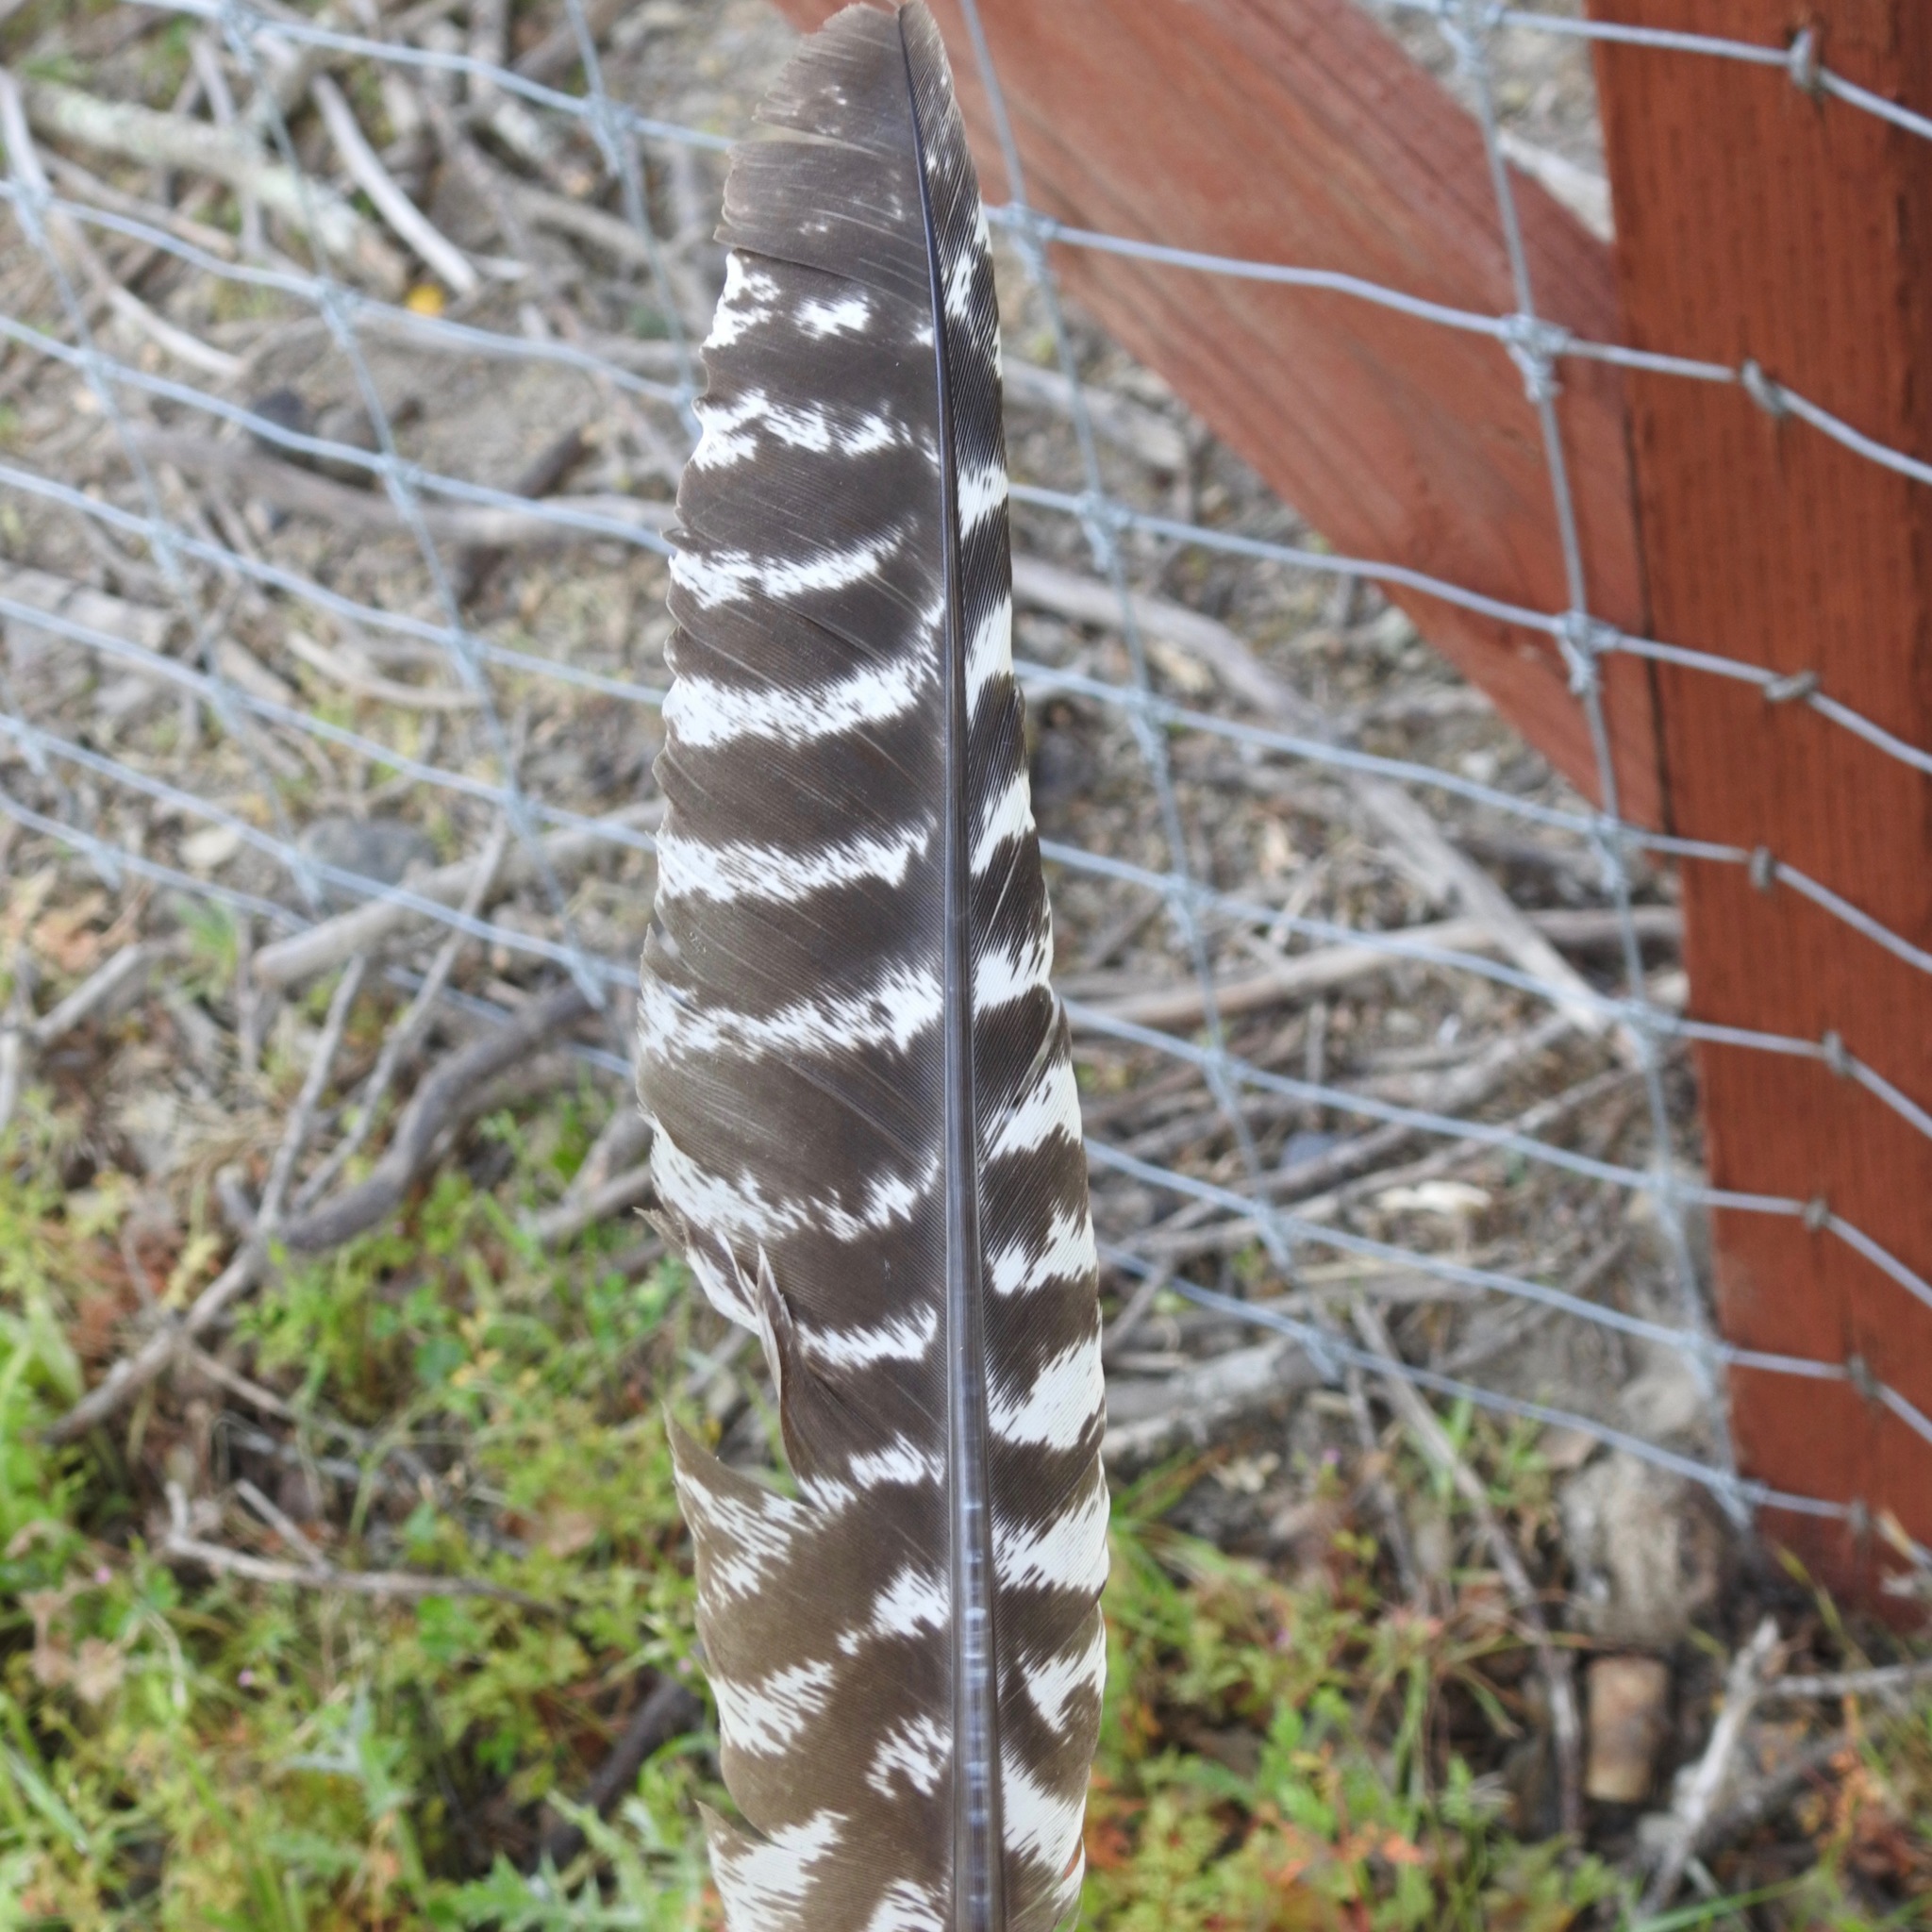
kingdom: Animalia
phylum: Chordata
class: Aves
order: Galliformes
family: Phasianidae
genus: Meleagris
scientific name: Meleagris gallopavo
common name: Wild turkey
